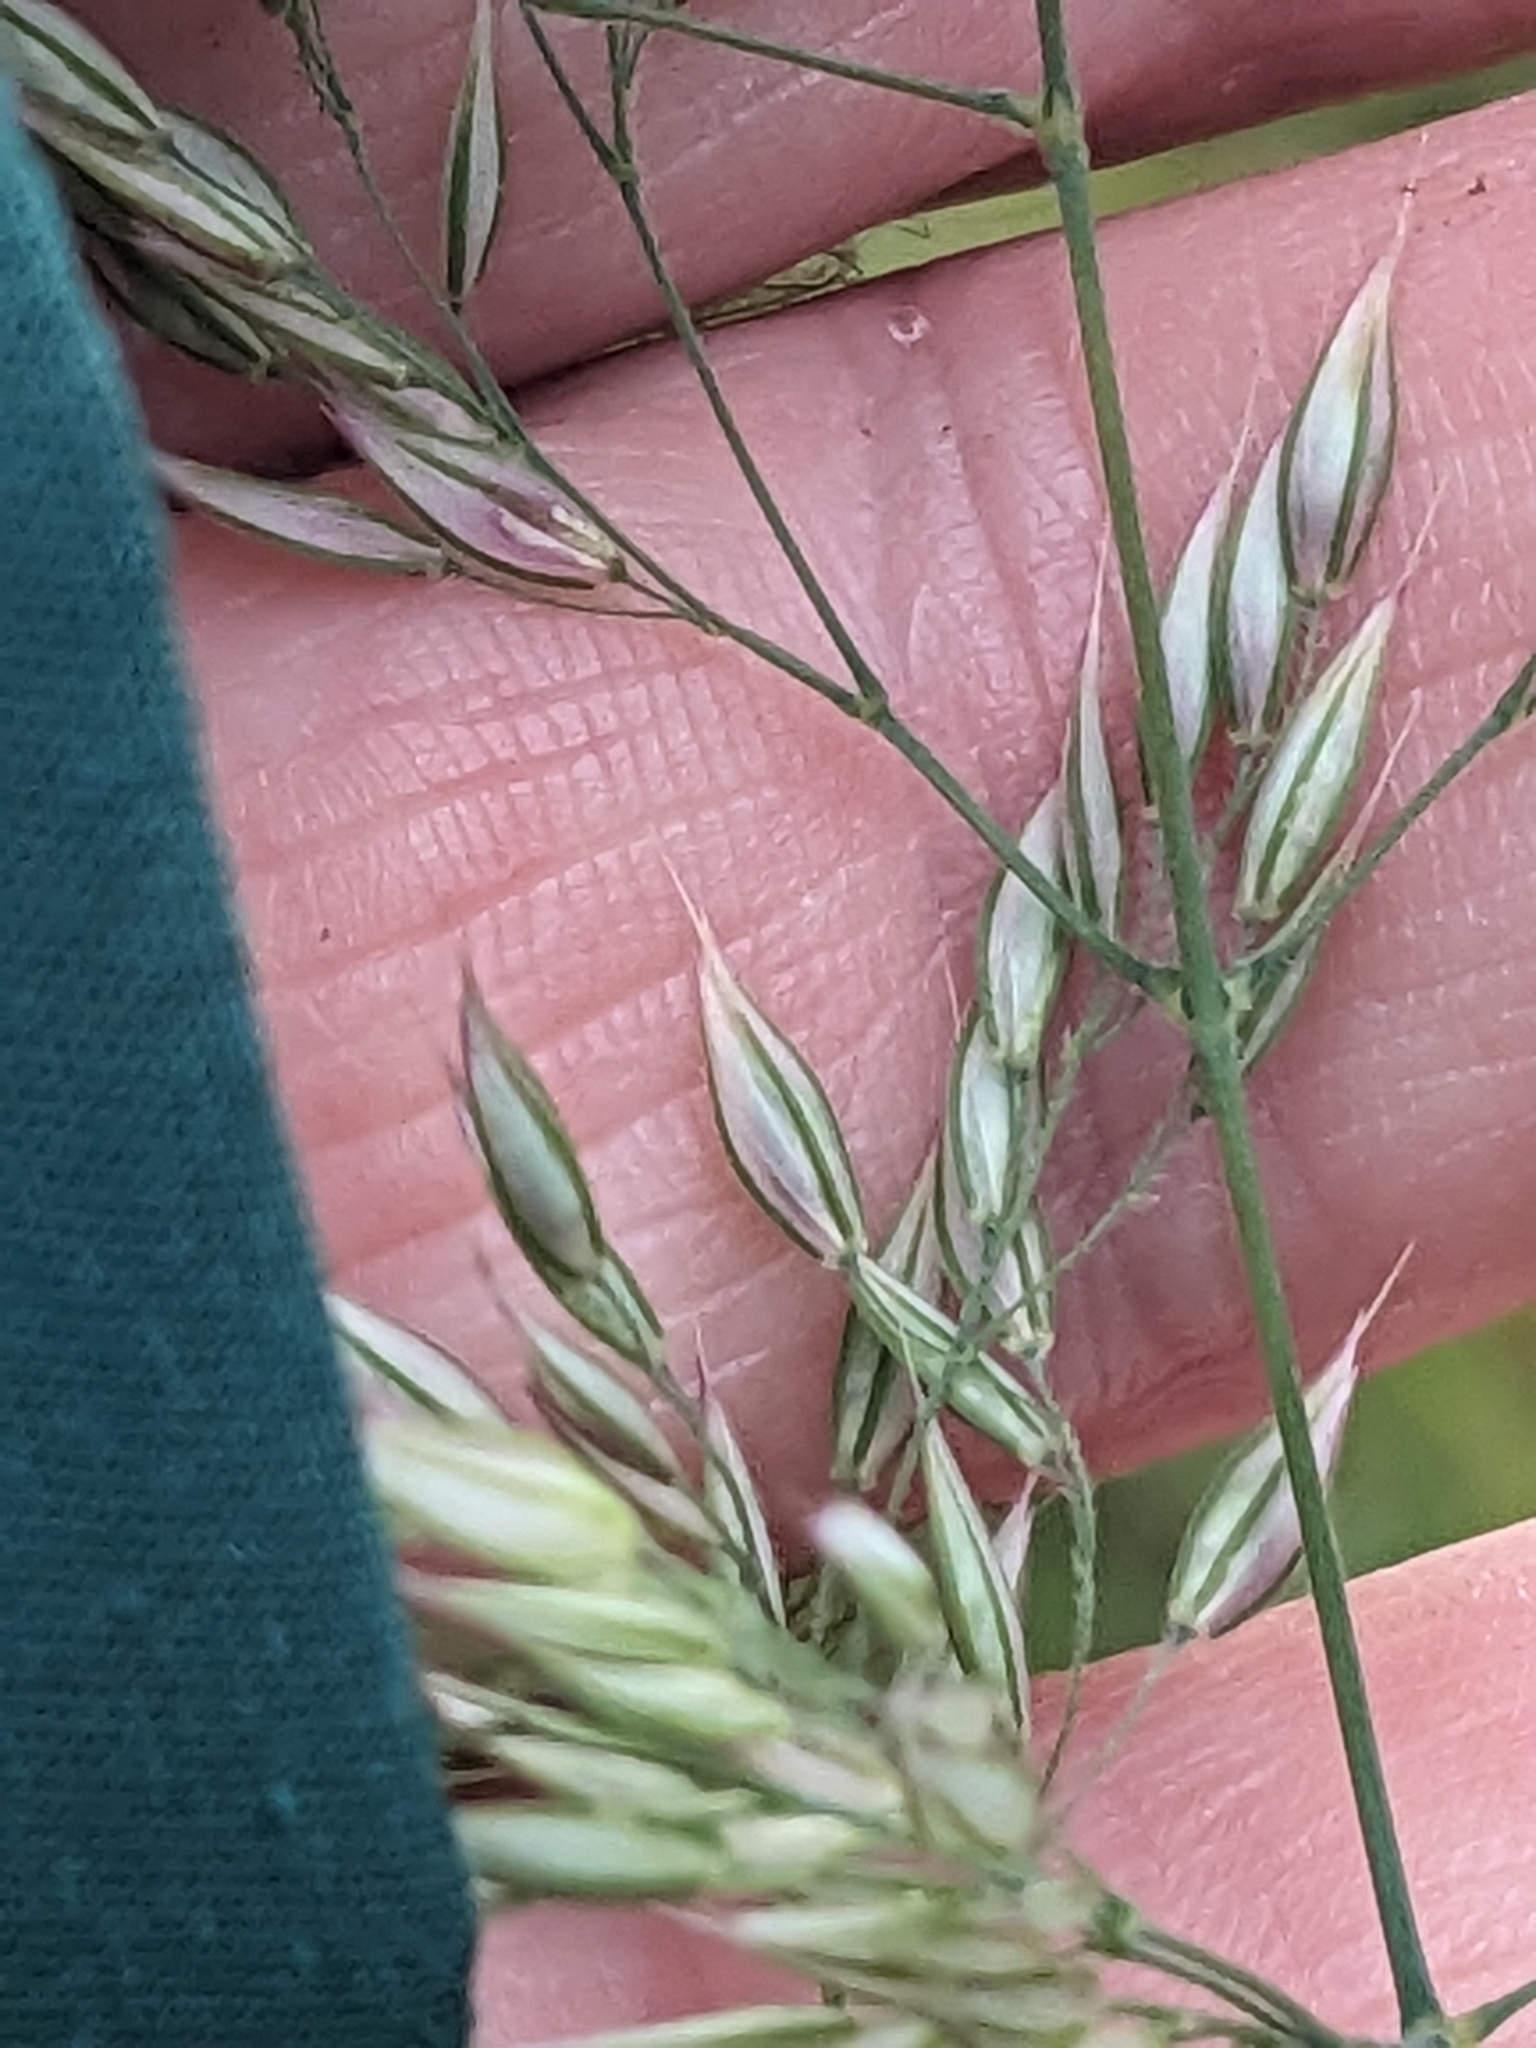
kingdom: Plantae
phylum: Tracheophyta
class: Liliopsida
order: Poales
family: Poaceae
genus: Holcus
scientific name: Holcus mollis
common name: Creeping velvetgrass
